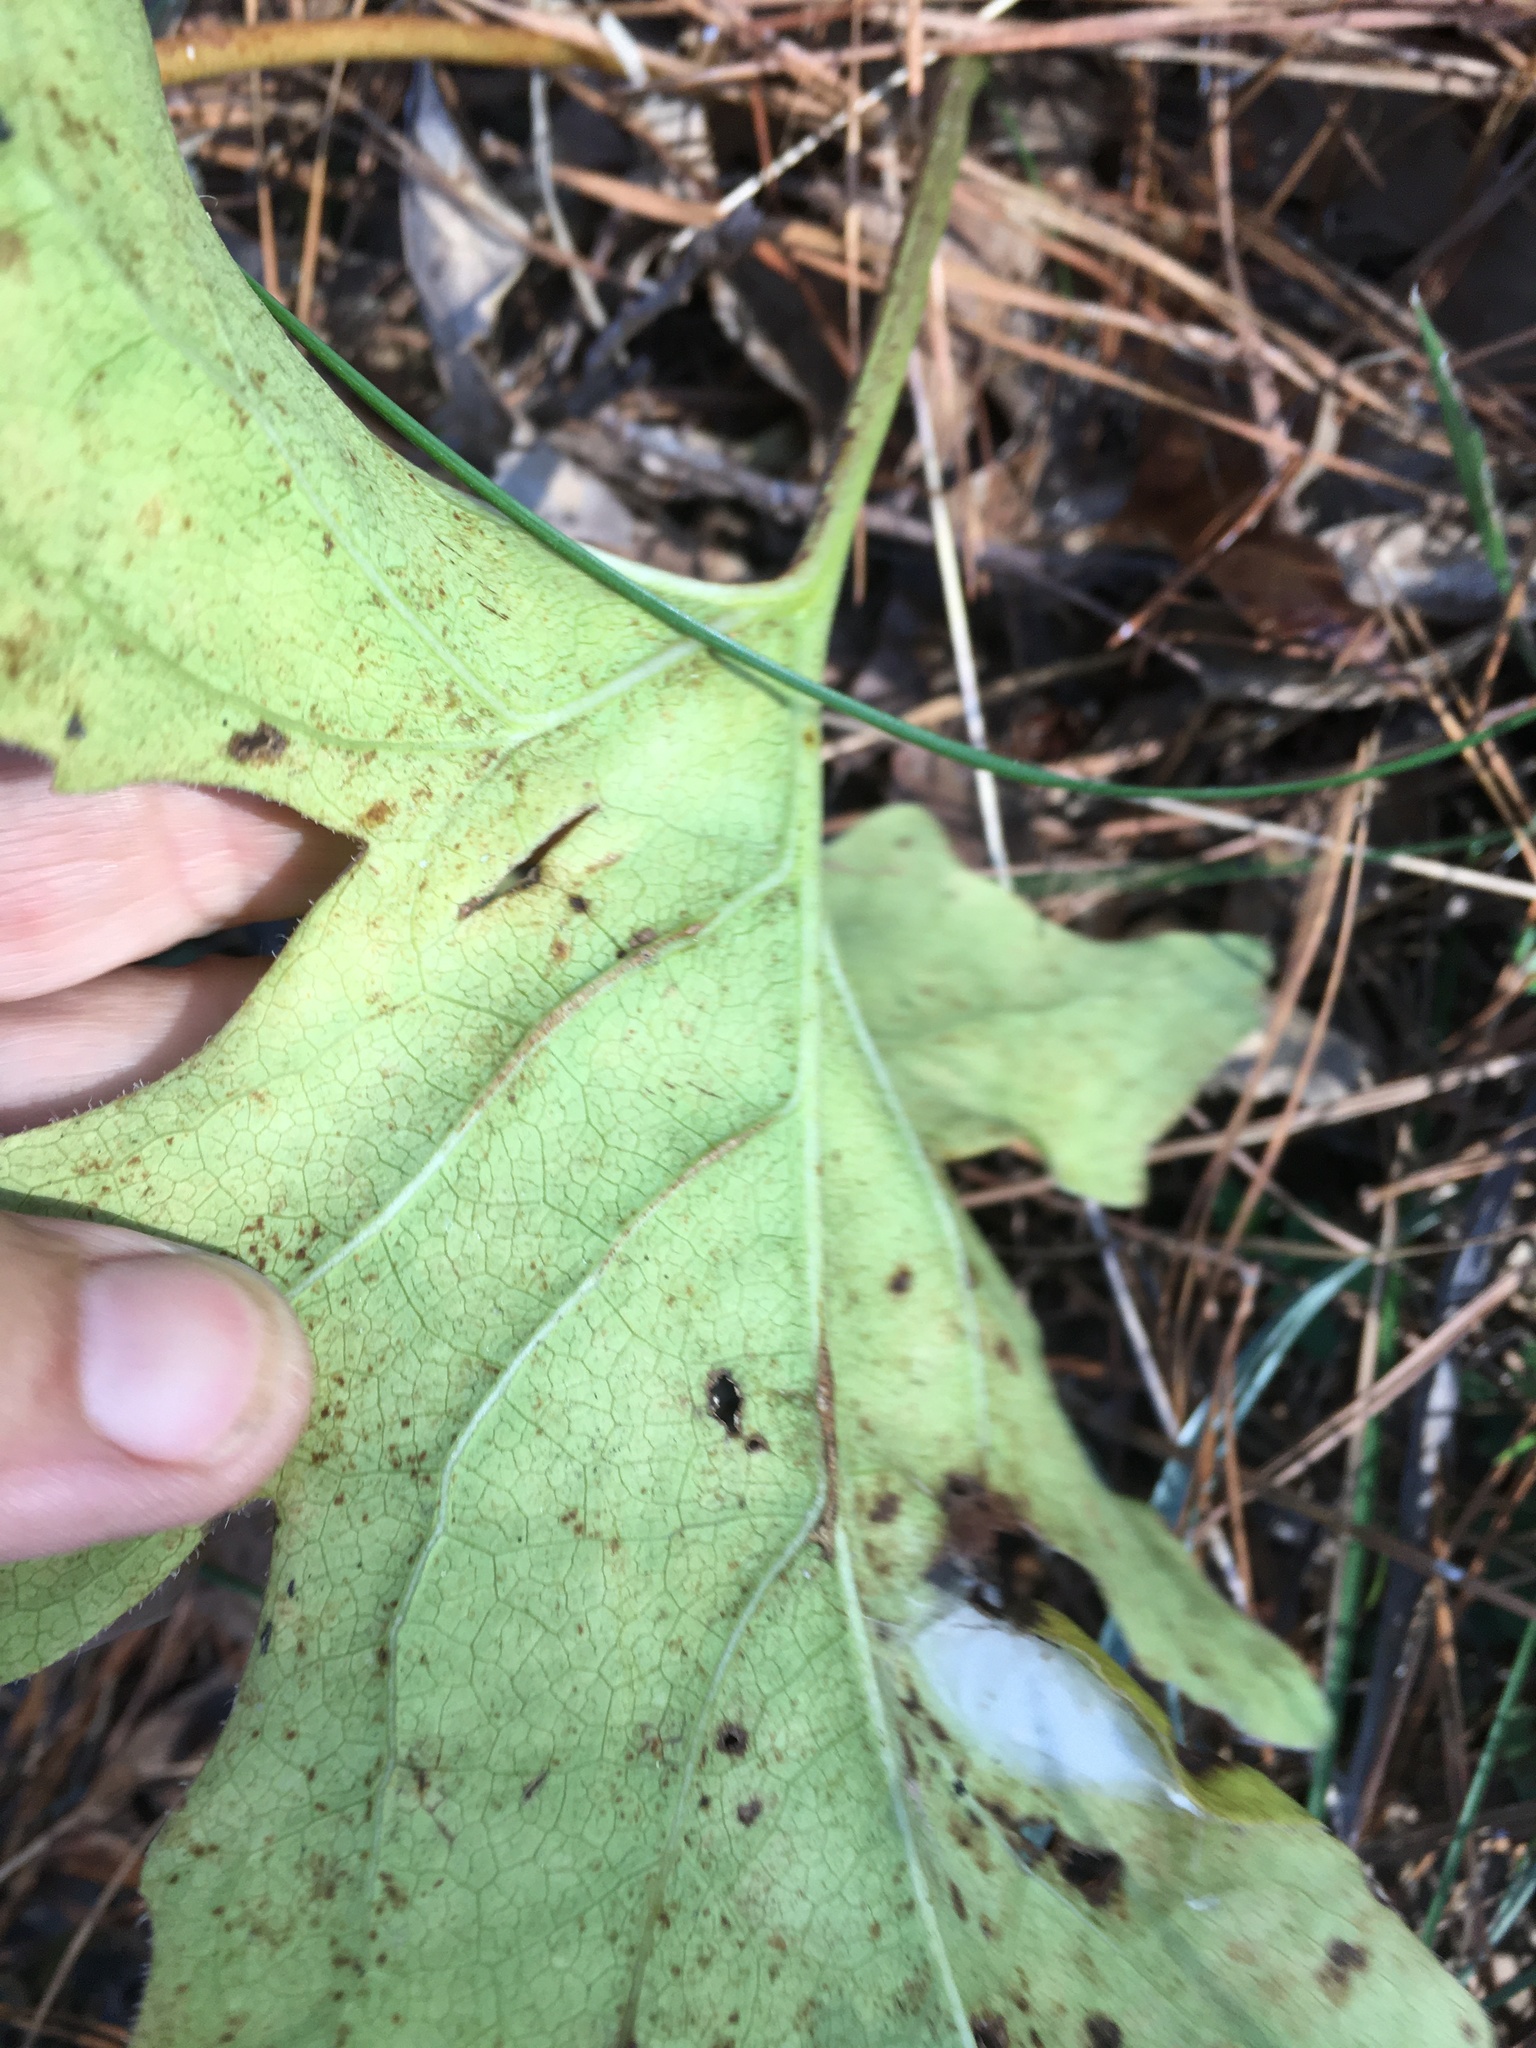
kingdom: Plantae
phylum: Tracheophyta
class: Magnoliopsida
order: Asterales
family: Asteraceae
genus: Silphium
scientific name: Silphium compositum
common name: Lesser basal-leaf rosinweed
